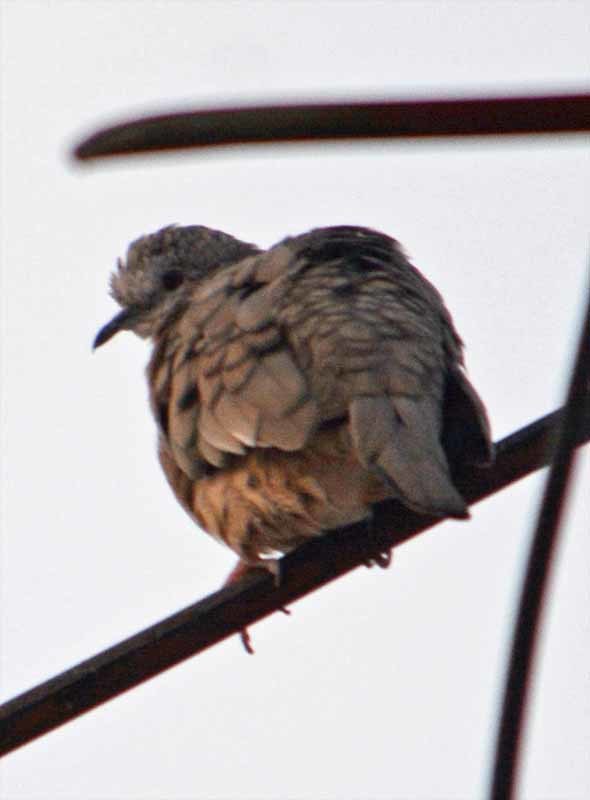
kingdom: Animalia
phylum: Chordata
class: Aves
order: Columbiformes
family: Columbidae
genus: Columbina
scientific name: Columbina inca
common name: Inca dove
